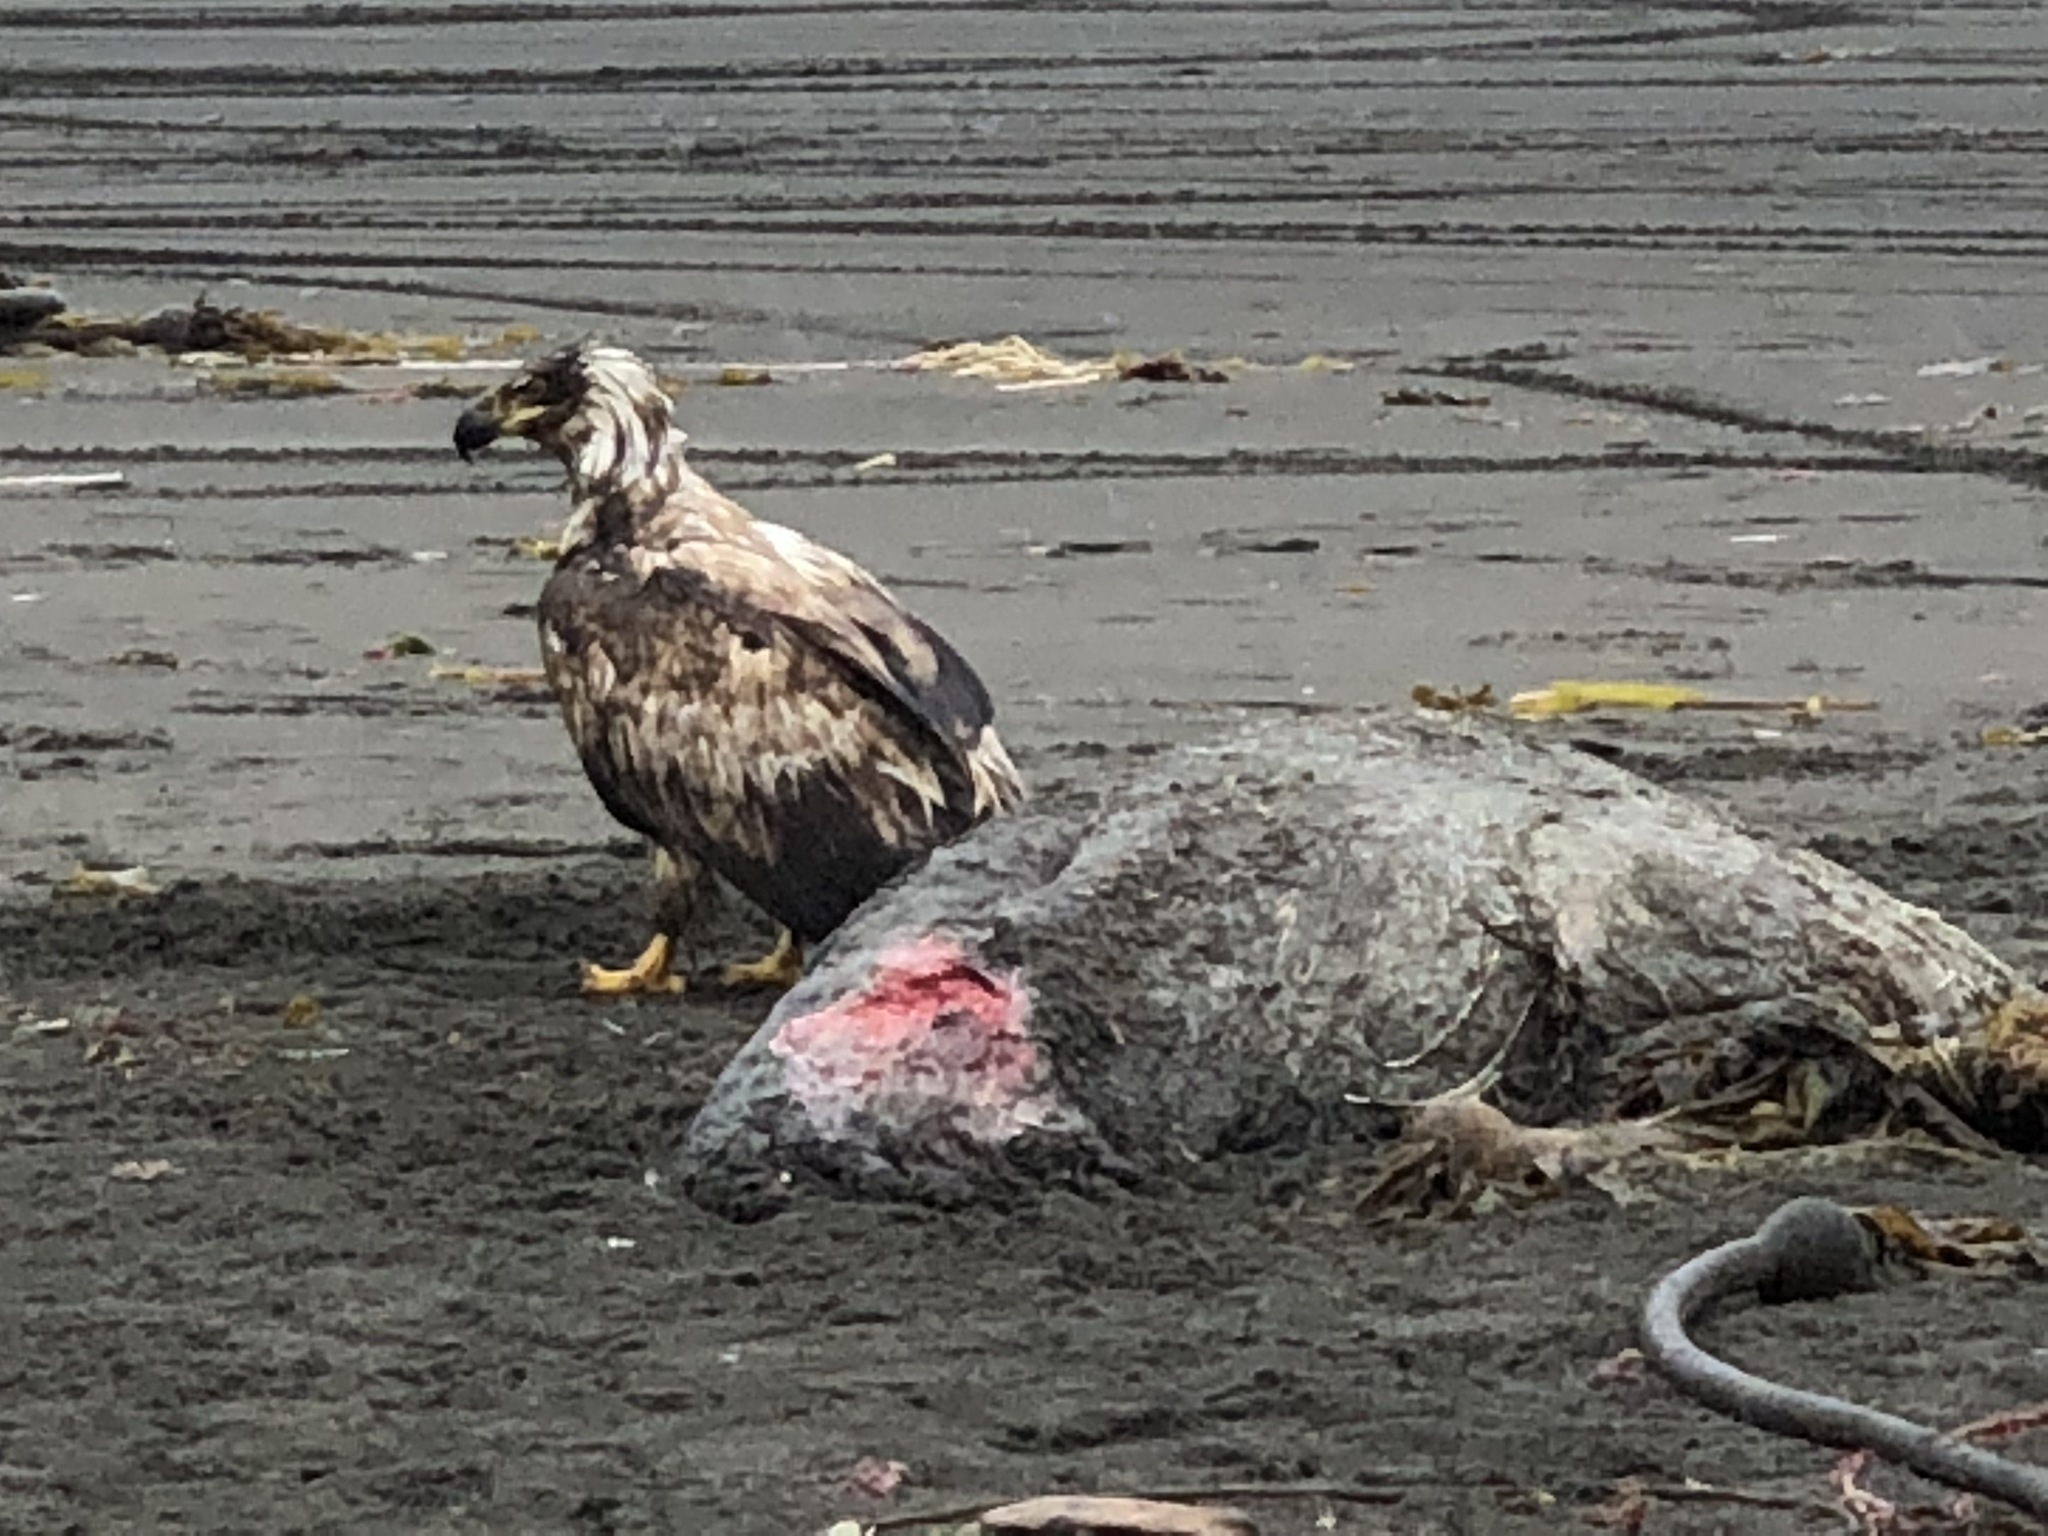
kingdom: Animalia
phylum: Chordata
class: Aves
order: Accipitriformes
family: Accipitridae
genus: Haliaeetus
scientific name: Haliaeetus leucocephalus
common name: Bald eagle
